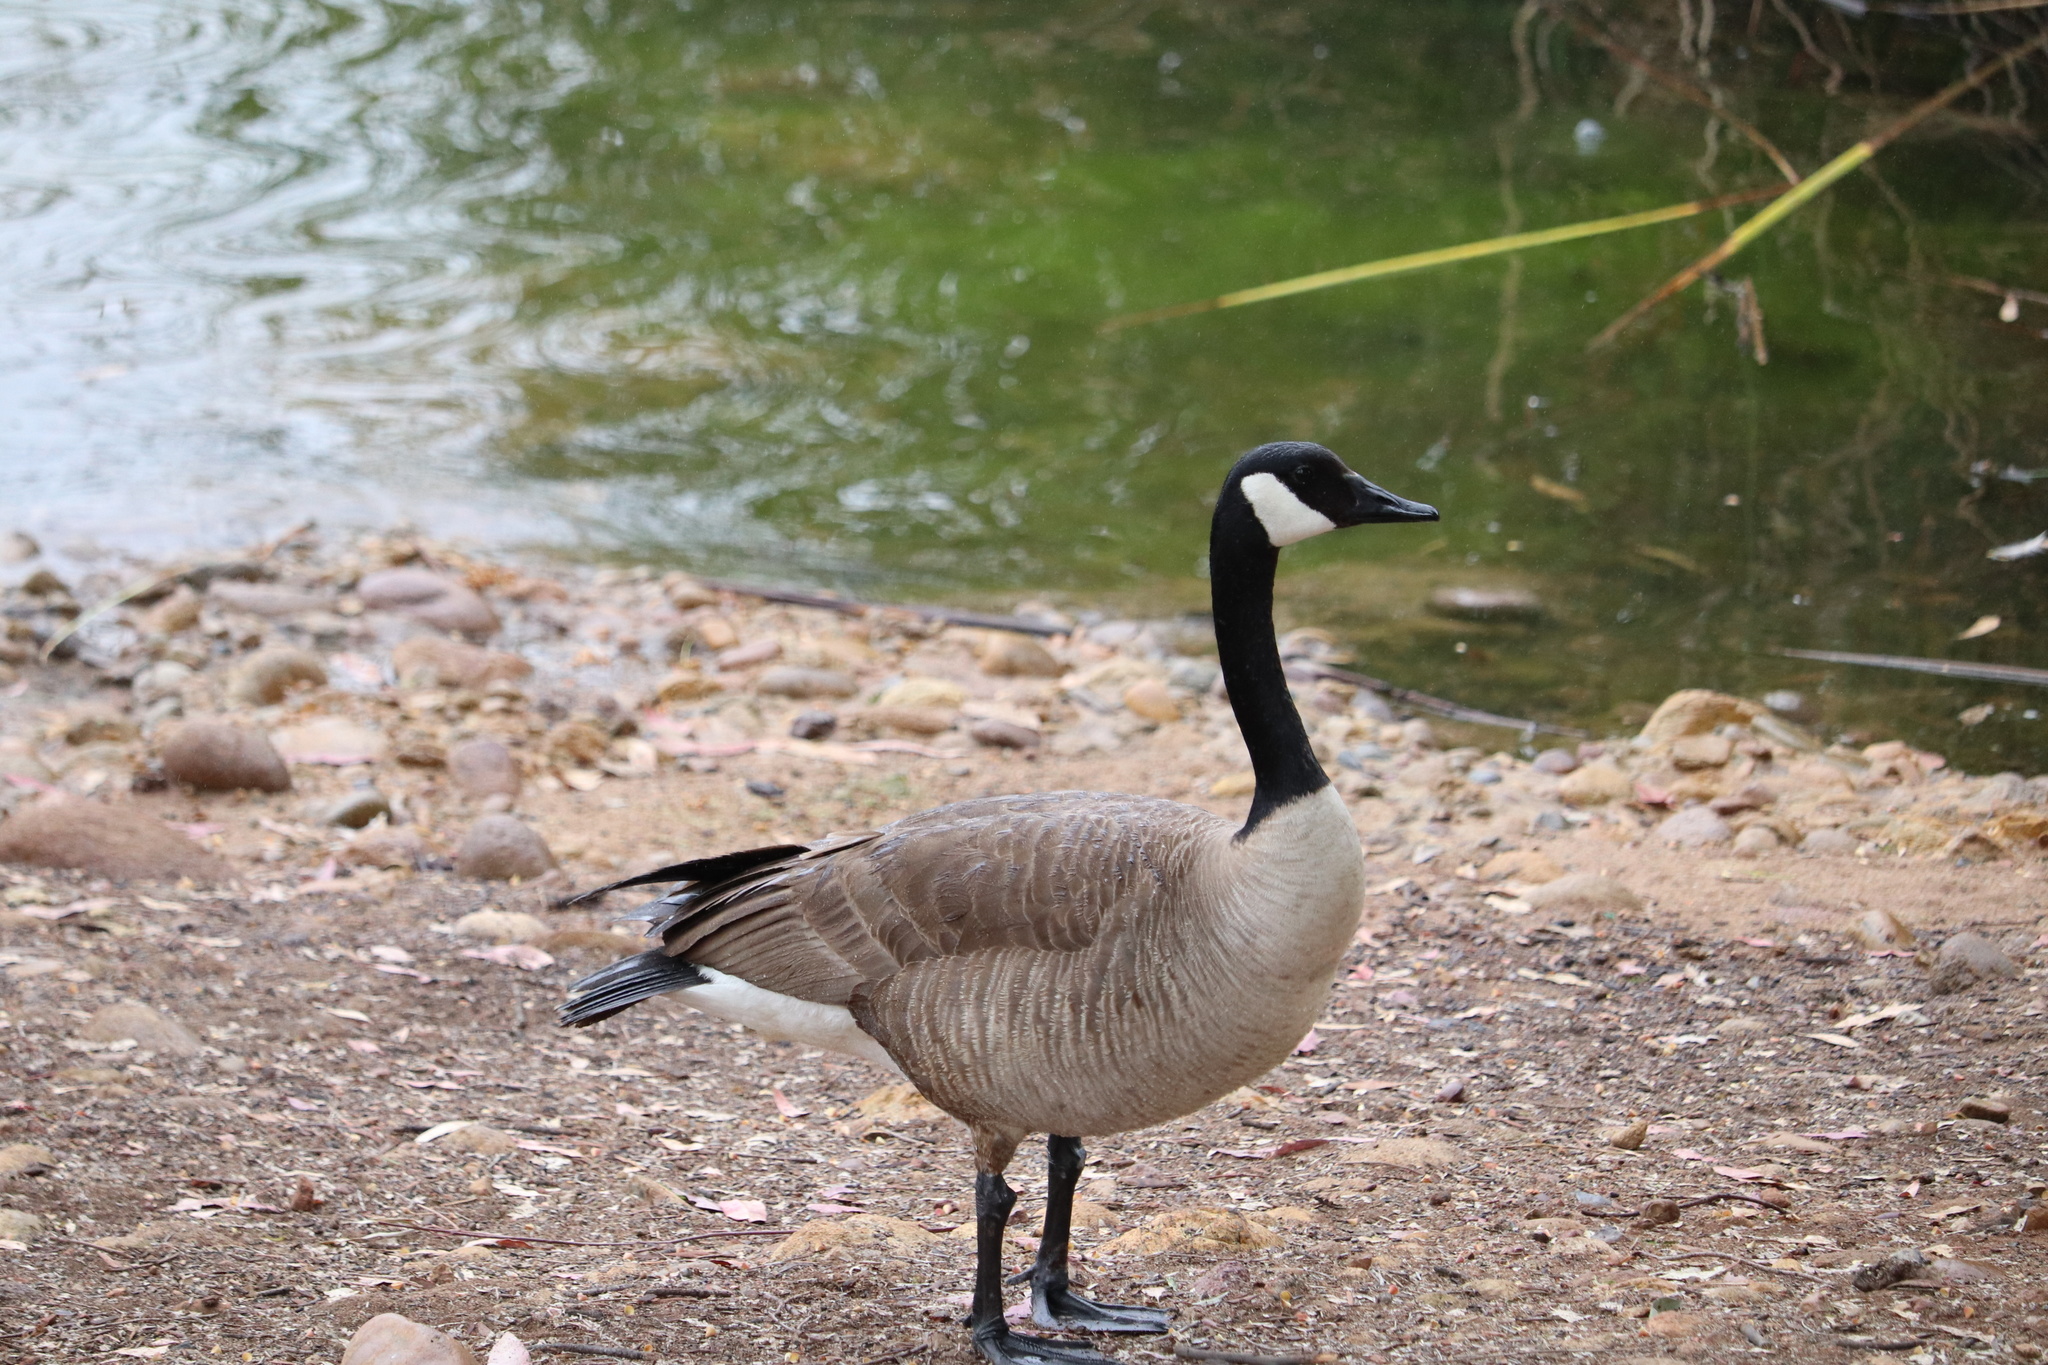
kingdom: Animalia
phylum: Chordata
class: Aves
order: Anseriformes
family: Anatidae
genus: Branta
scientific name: Branta canadensis
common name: Canada goose
